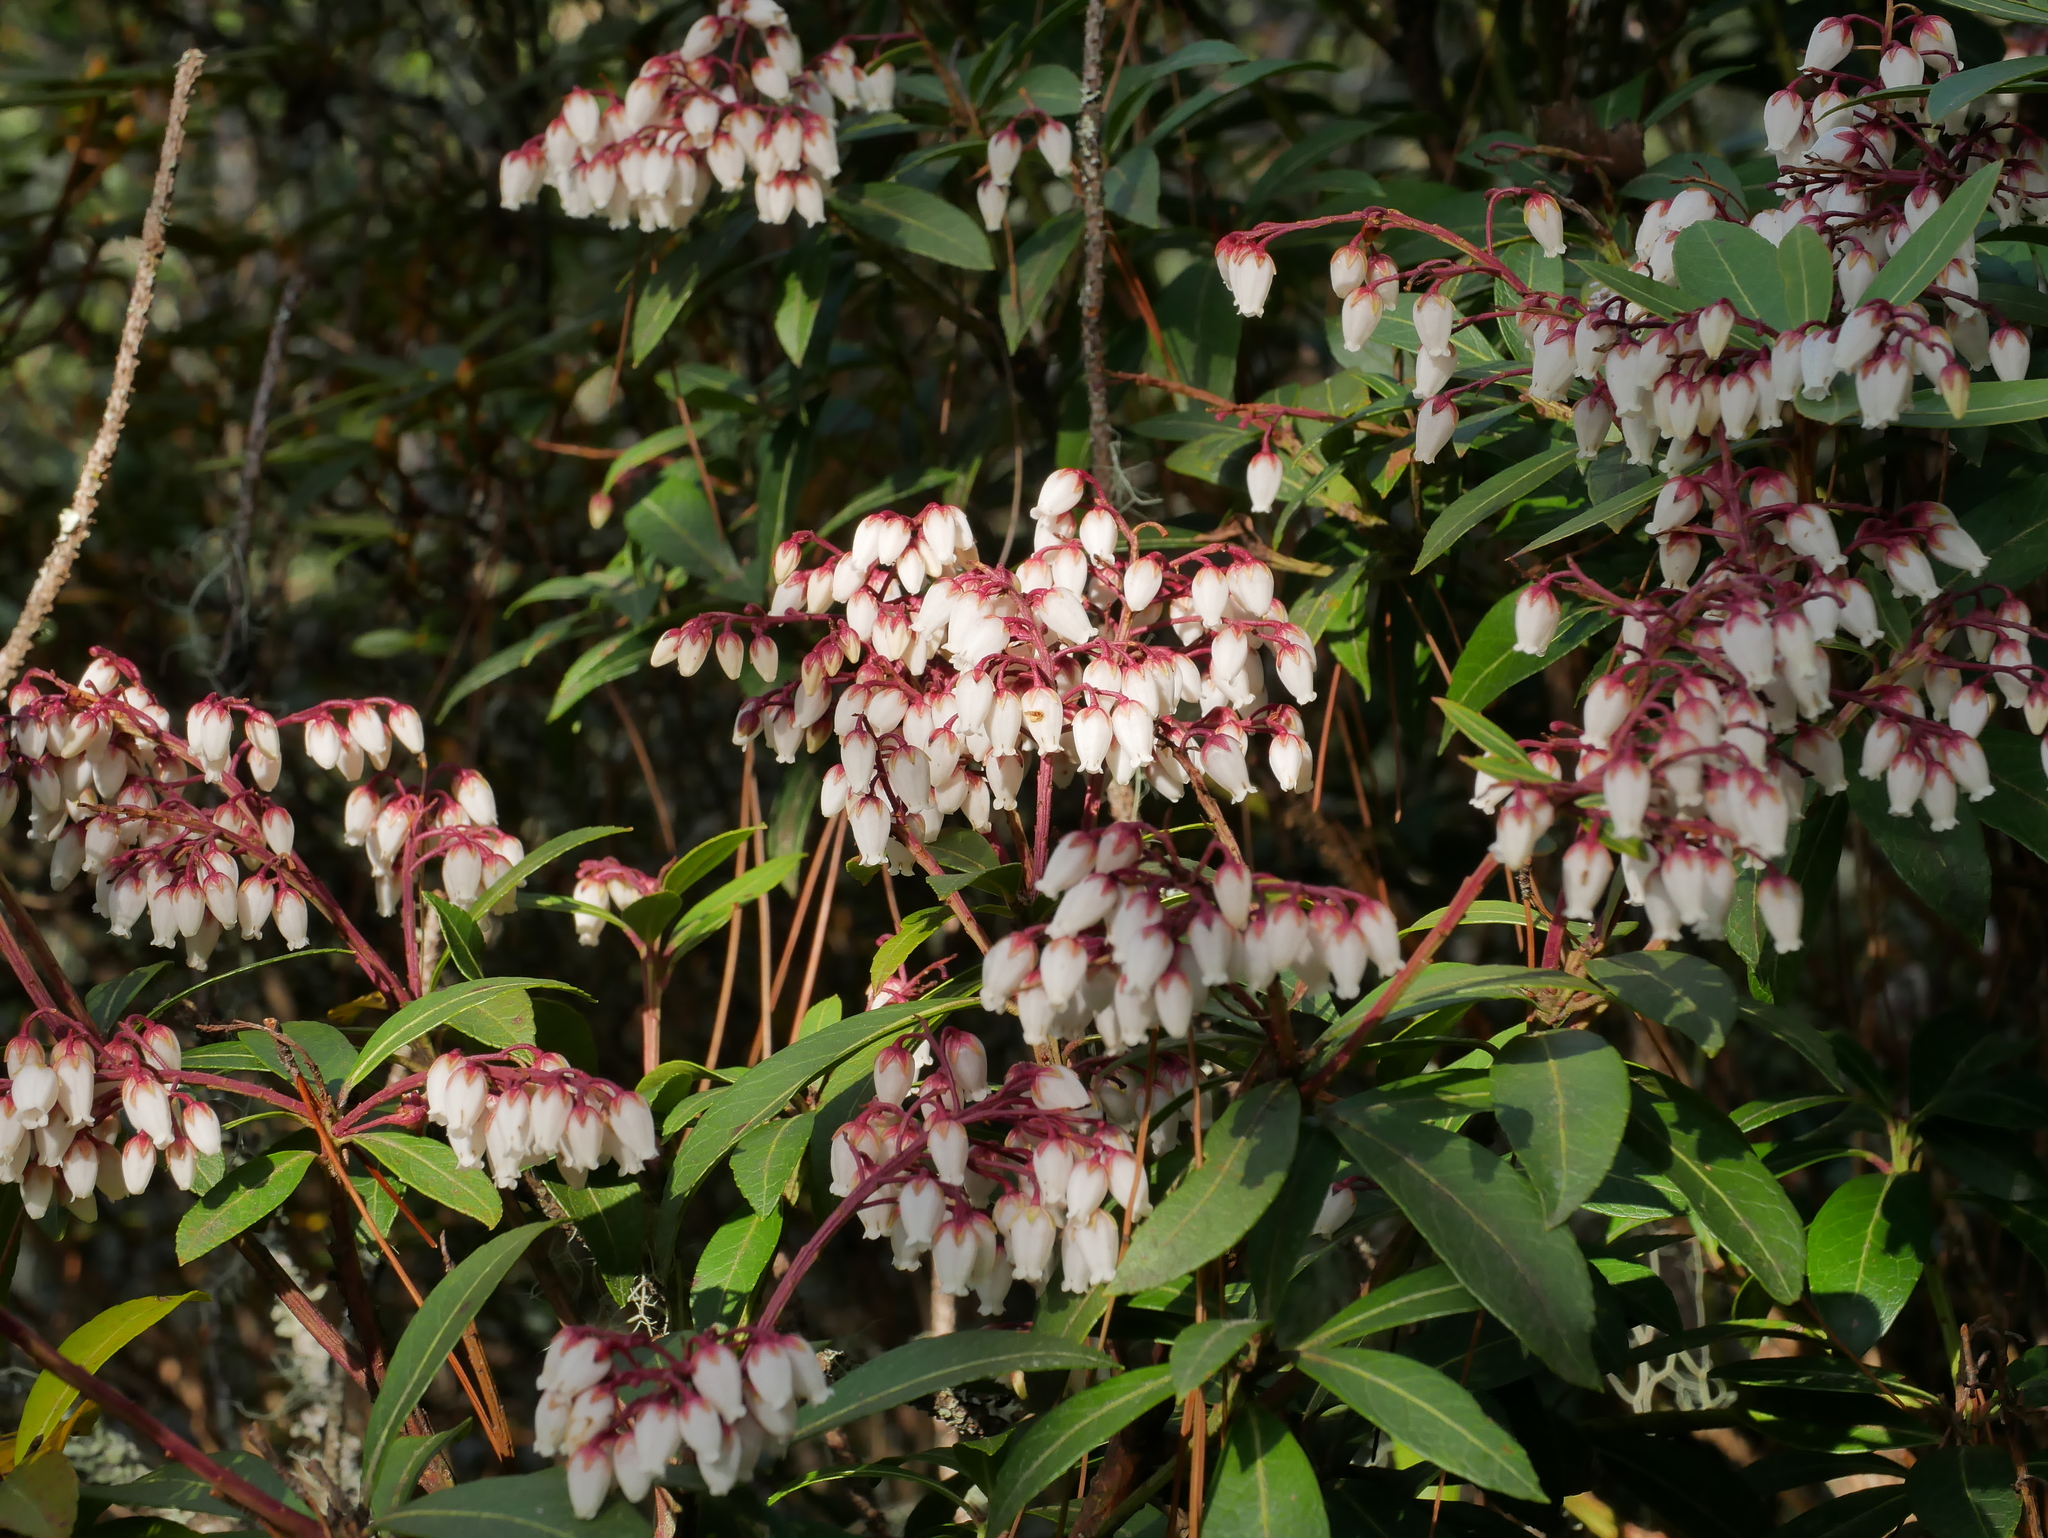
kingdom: Plantae
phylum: Tracheophyta
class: Magnoliopsida
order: Ericales
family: Ericaceae
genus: Pieris
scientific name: Pieris japonica
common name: Japanese pieris
